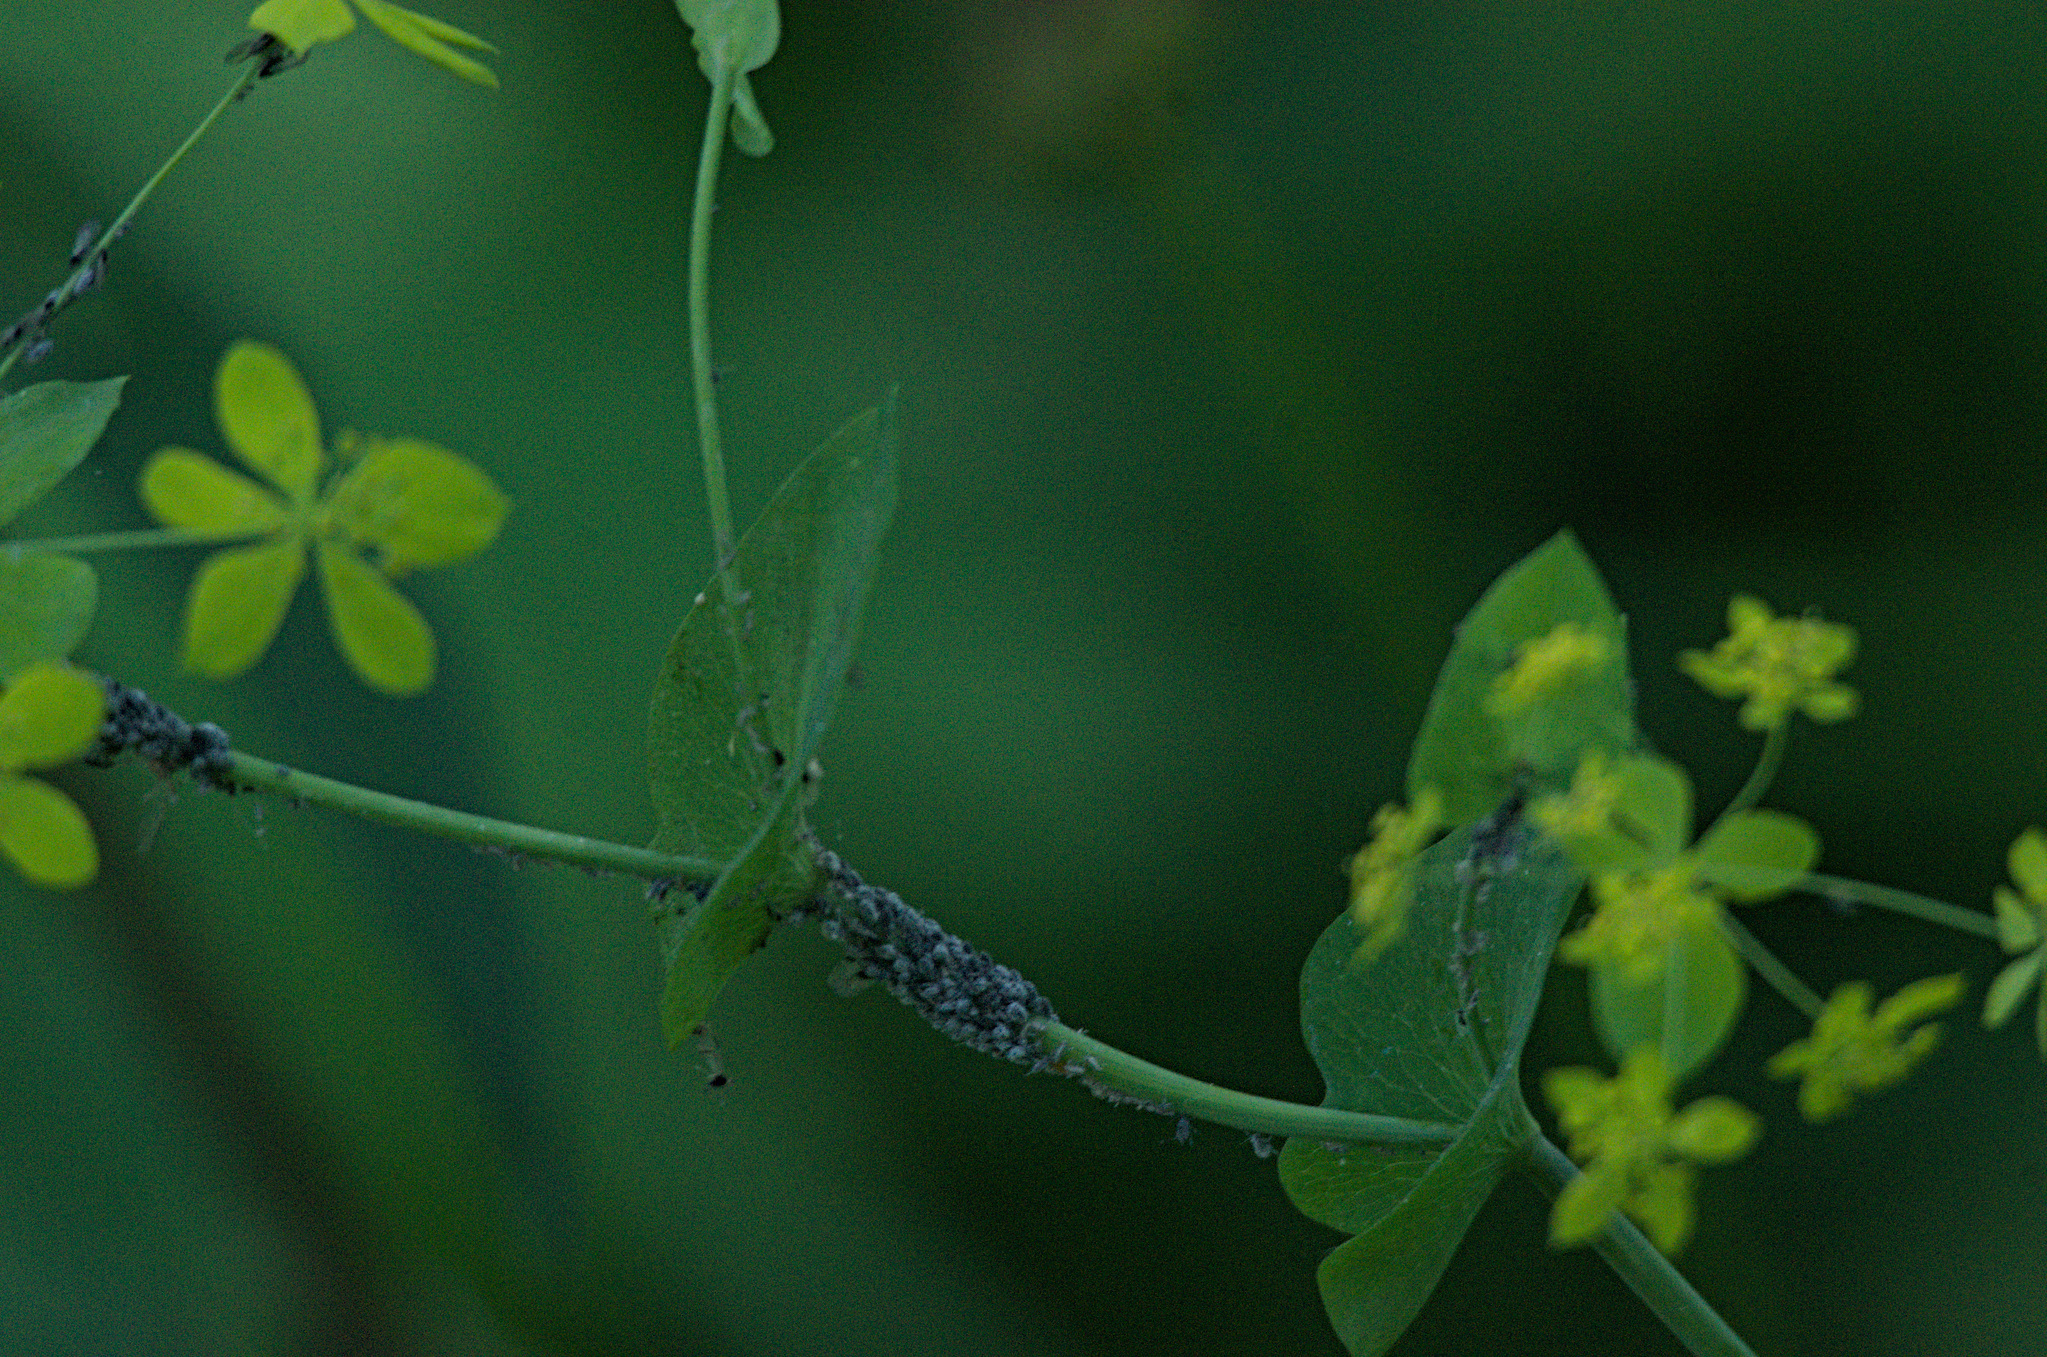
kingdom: Plantae
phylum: Tracheophyta
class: Magnoliopsida
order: Apiales
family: Apiaceae
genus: Bupleurum
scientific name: Bupleurum aureum
